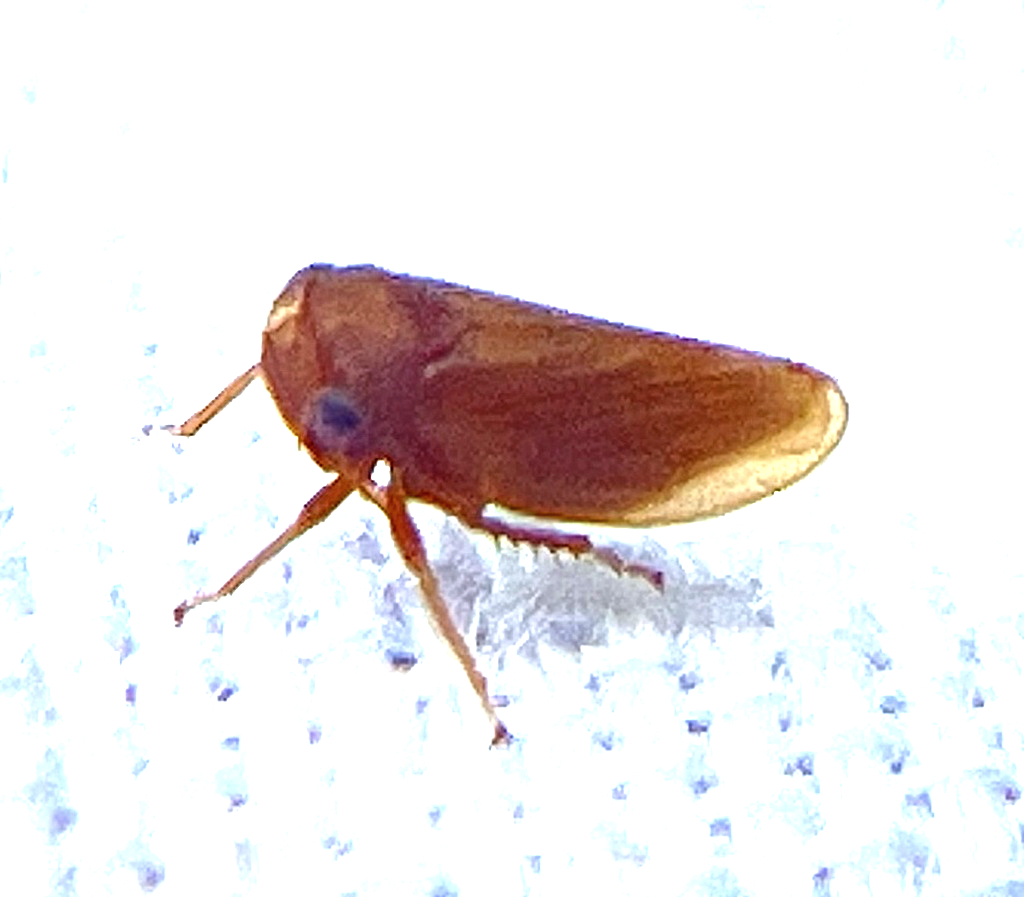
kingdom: Animalia
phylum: Arthropoda
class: Insecta
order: Hemiptera
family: Cicadellidae
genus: Agallia
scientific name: Agallia deleta
